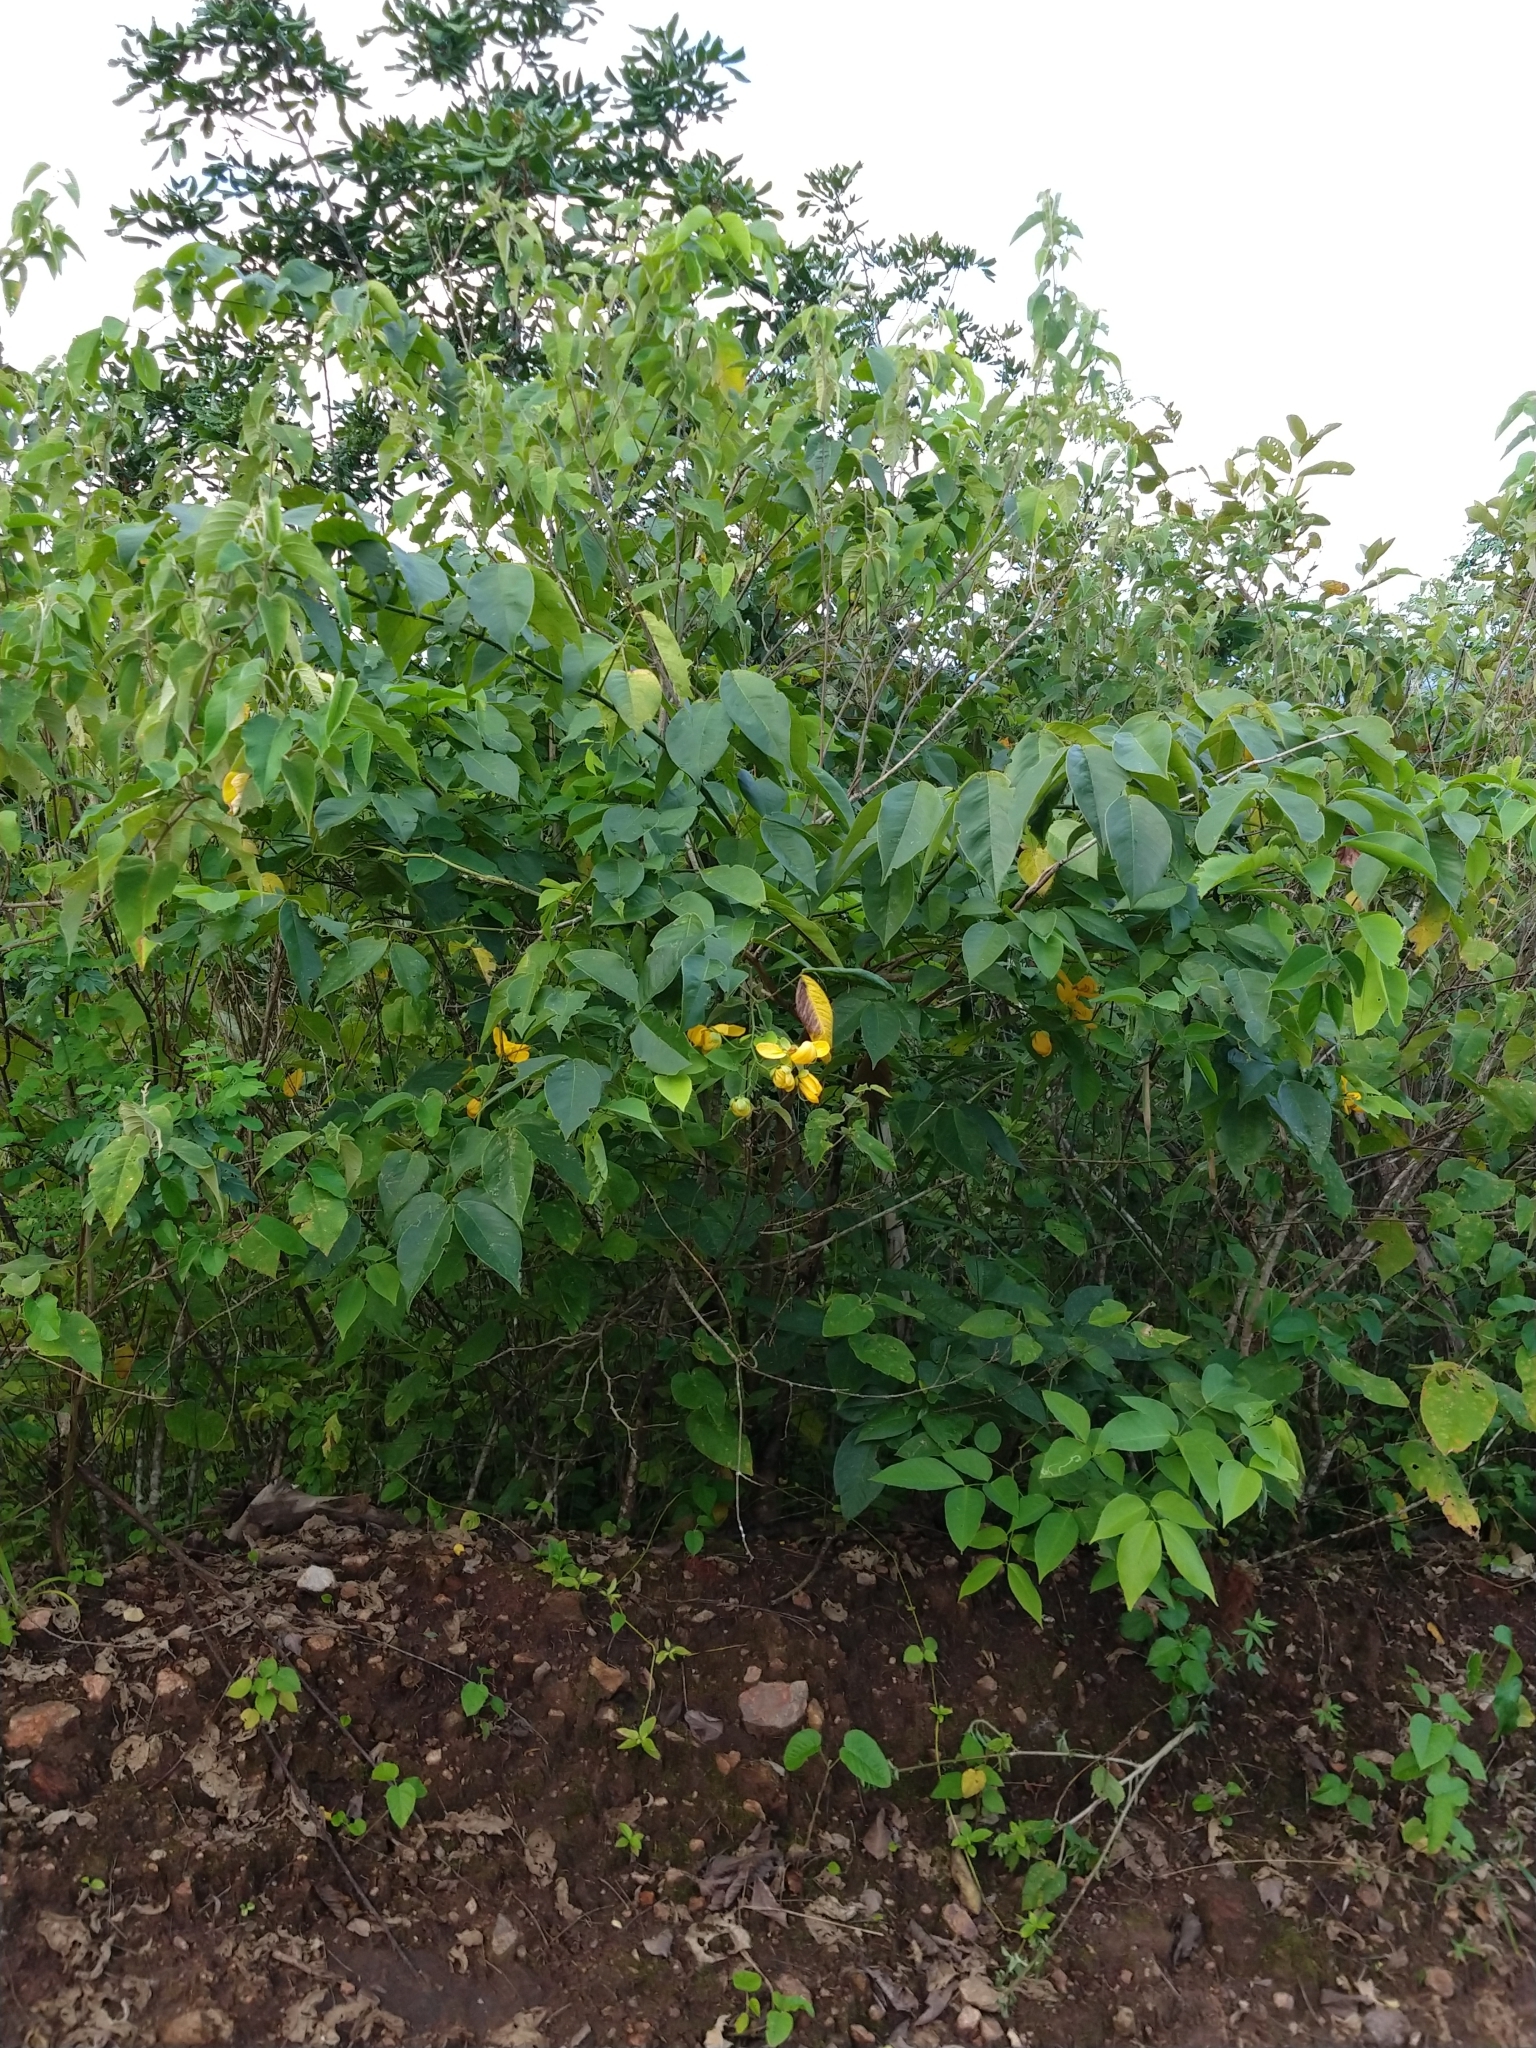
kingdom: Plantae
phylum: Tracheophyta
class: Magnoliopsida
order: Fabales
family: Fabaceae
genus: Senna
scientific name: Senna georgica
